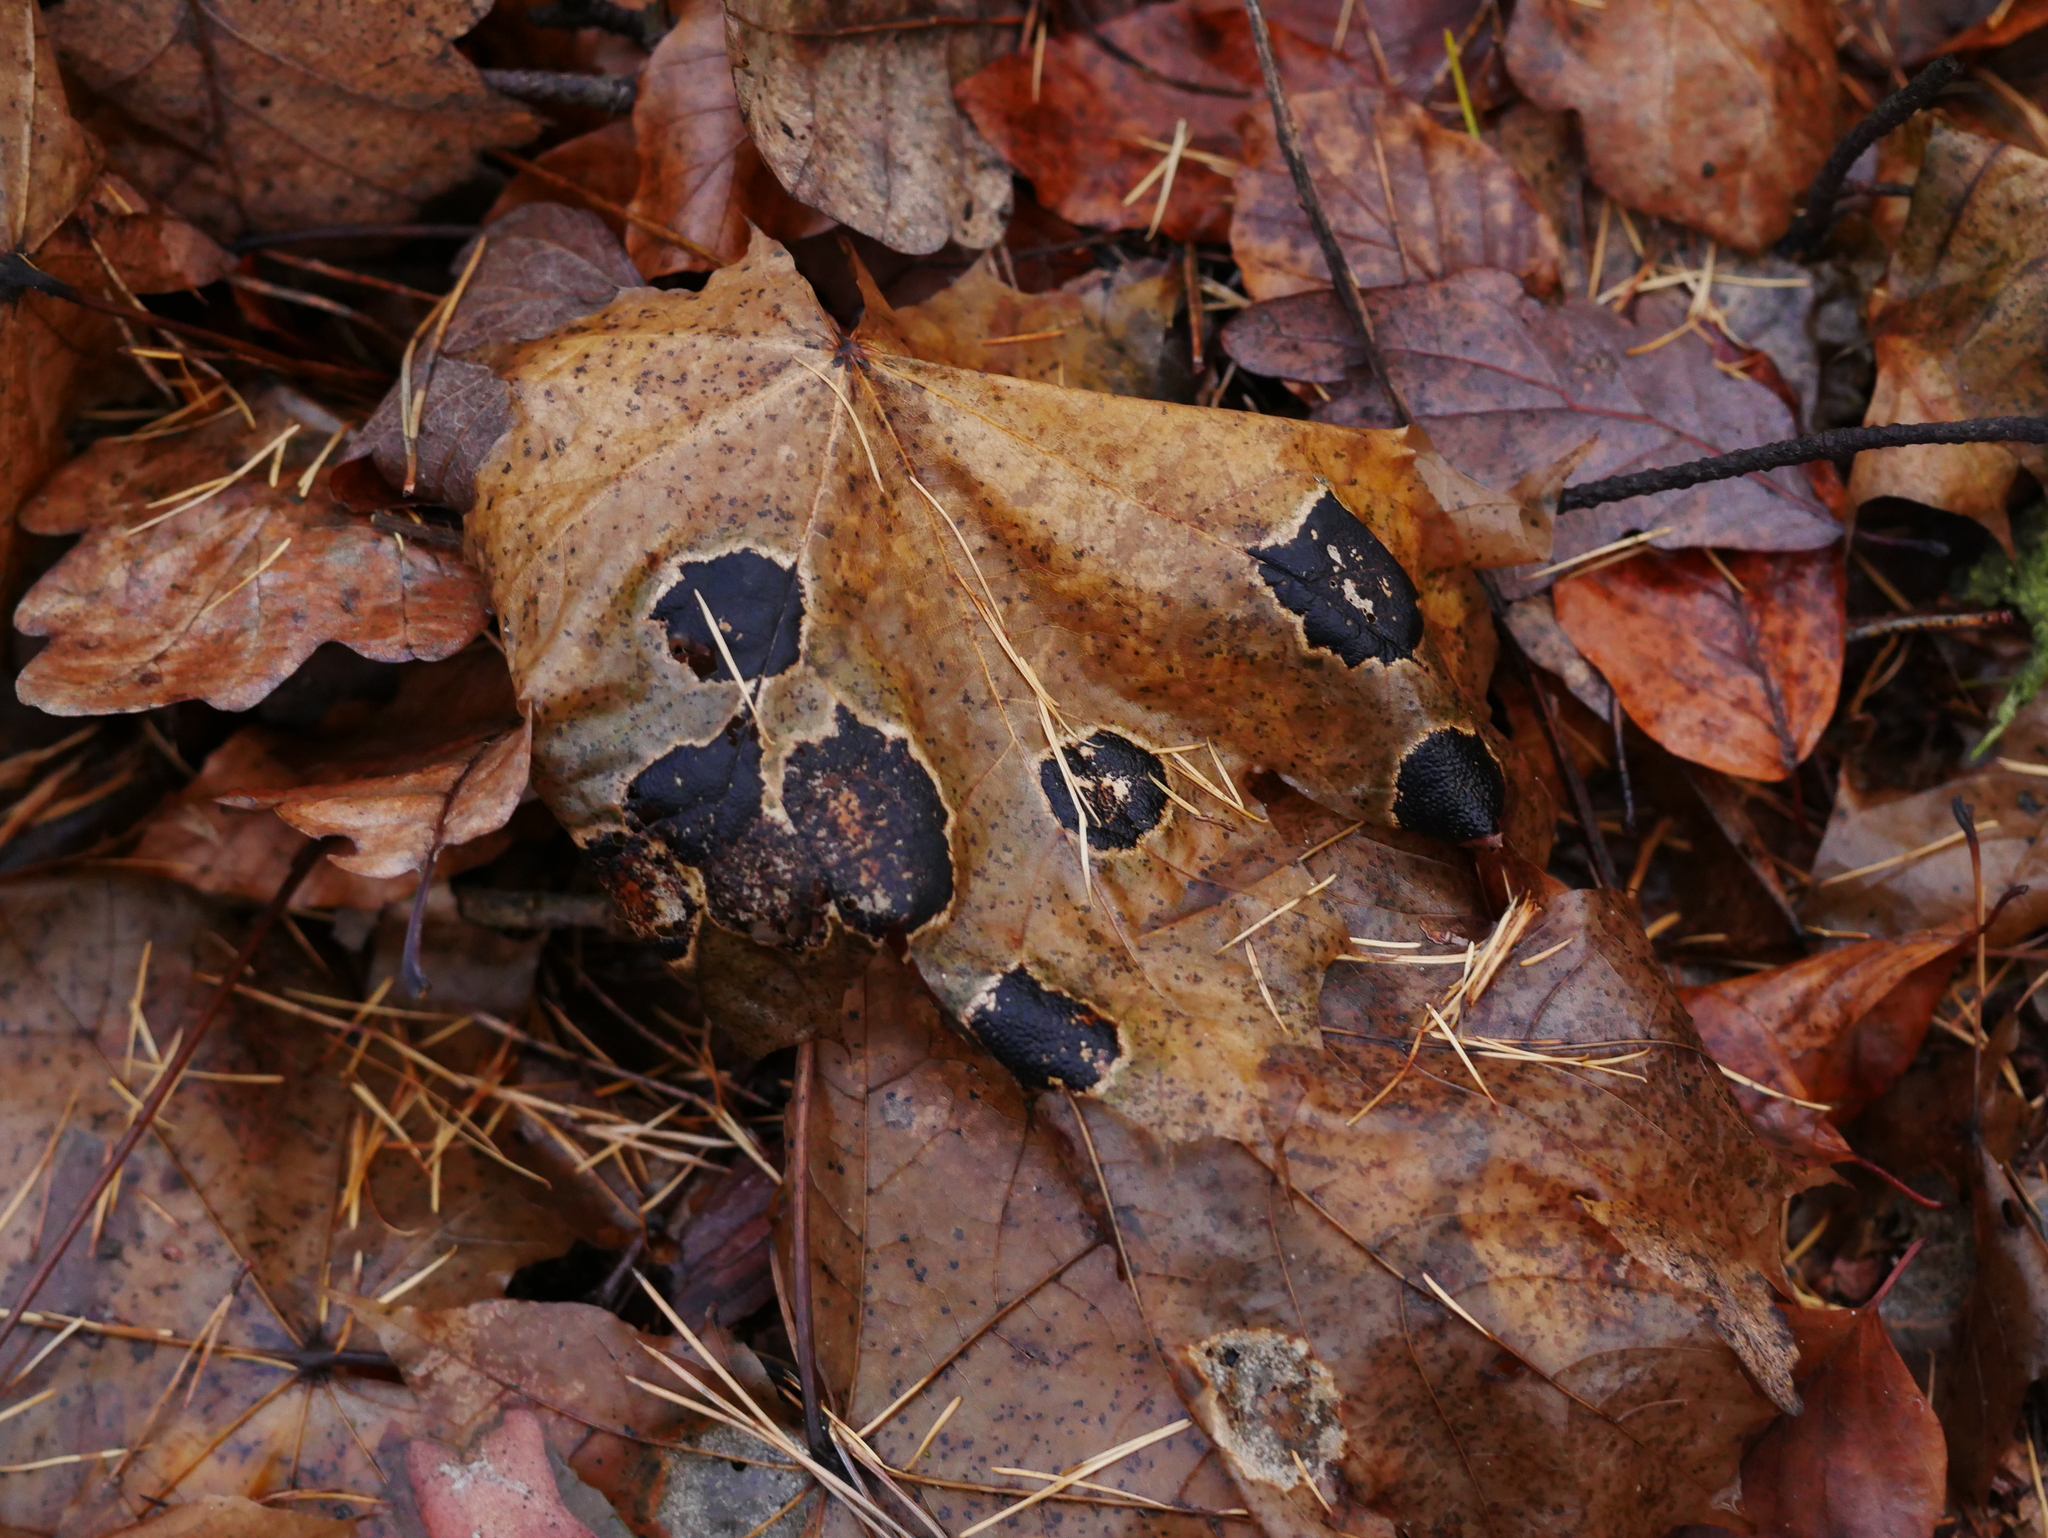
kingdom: Fungi
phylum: Ascomycota
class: Leotiomycetes
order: Rhytismatales
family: Rhytismataceae
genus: Rhytisma
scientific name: Rhytisma acerinum
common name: European tar spot
